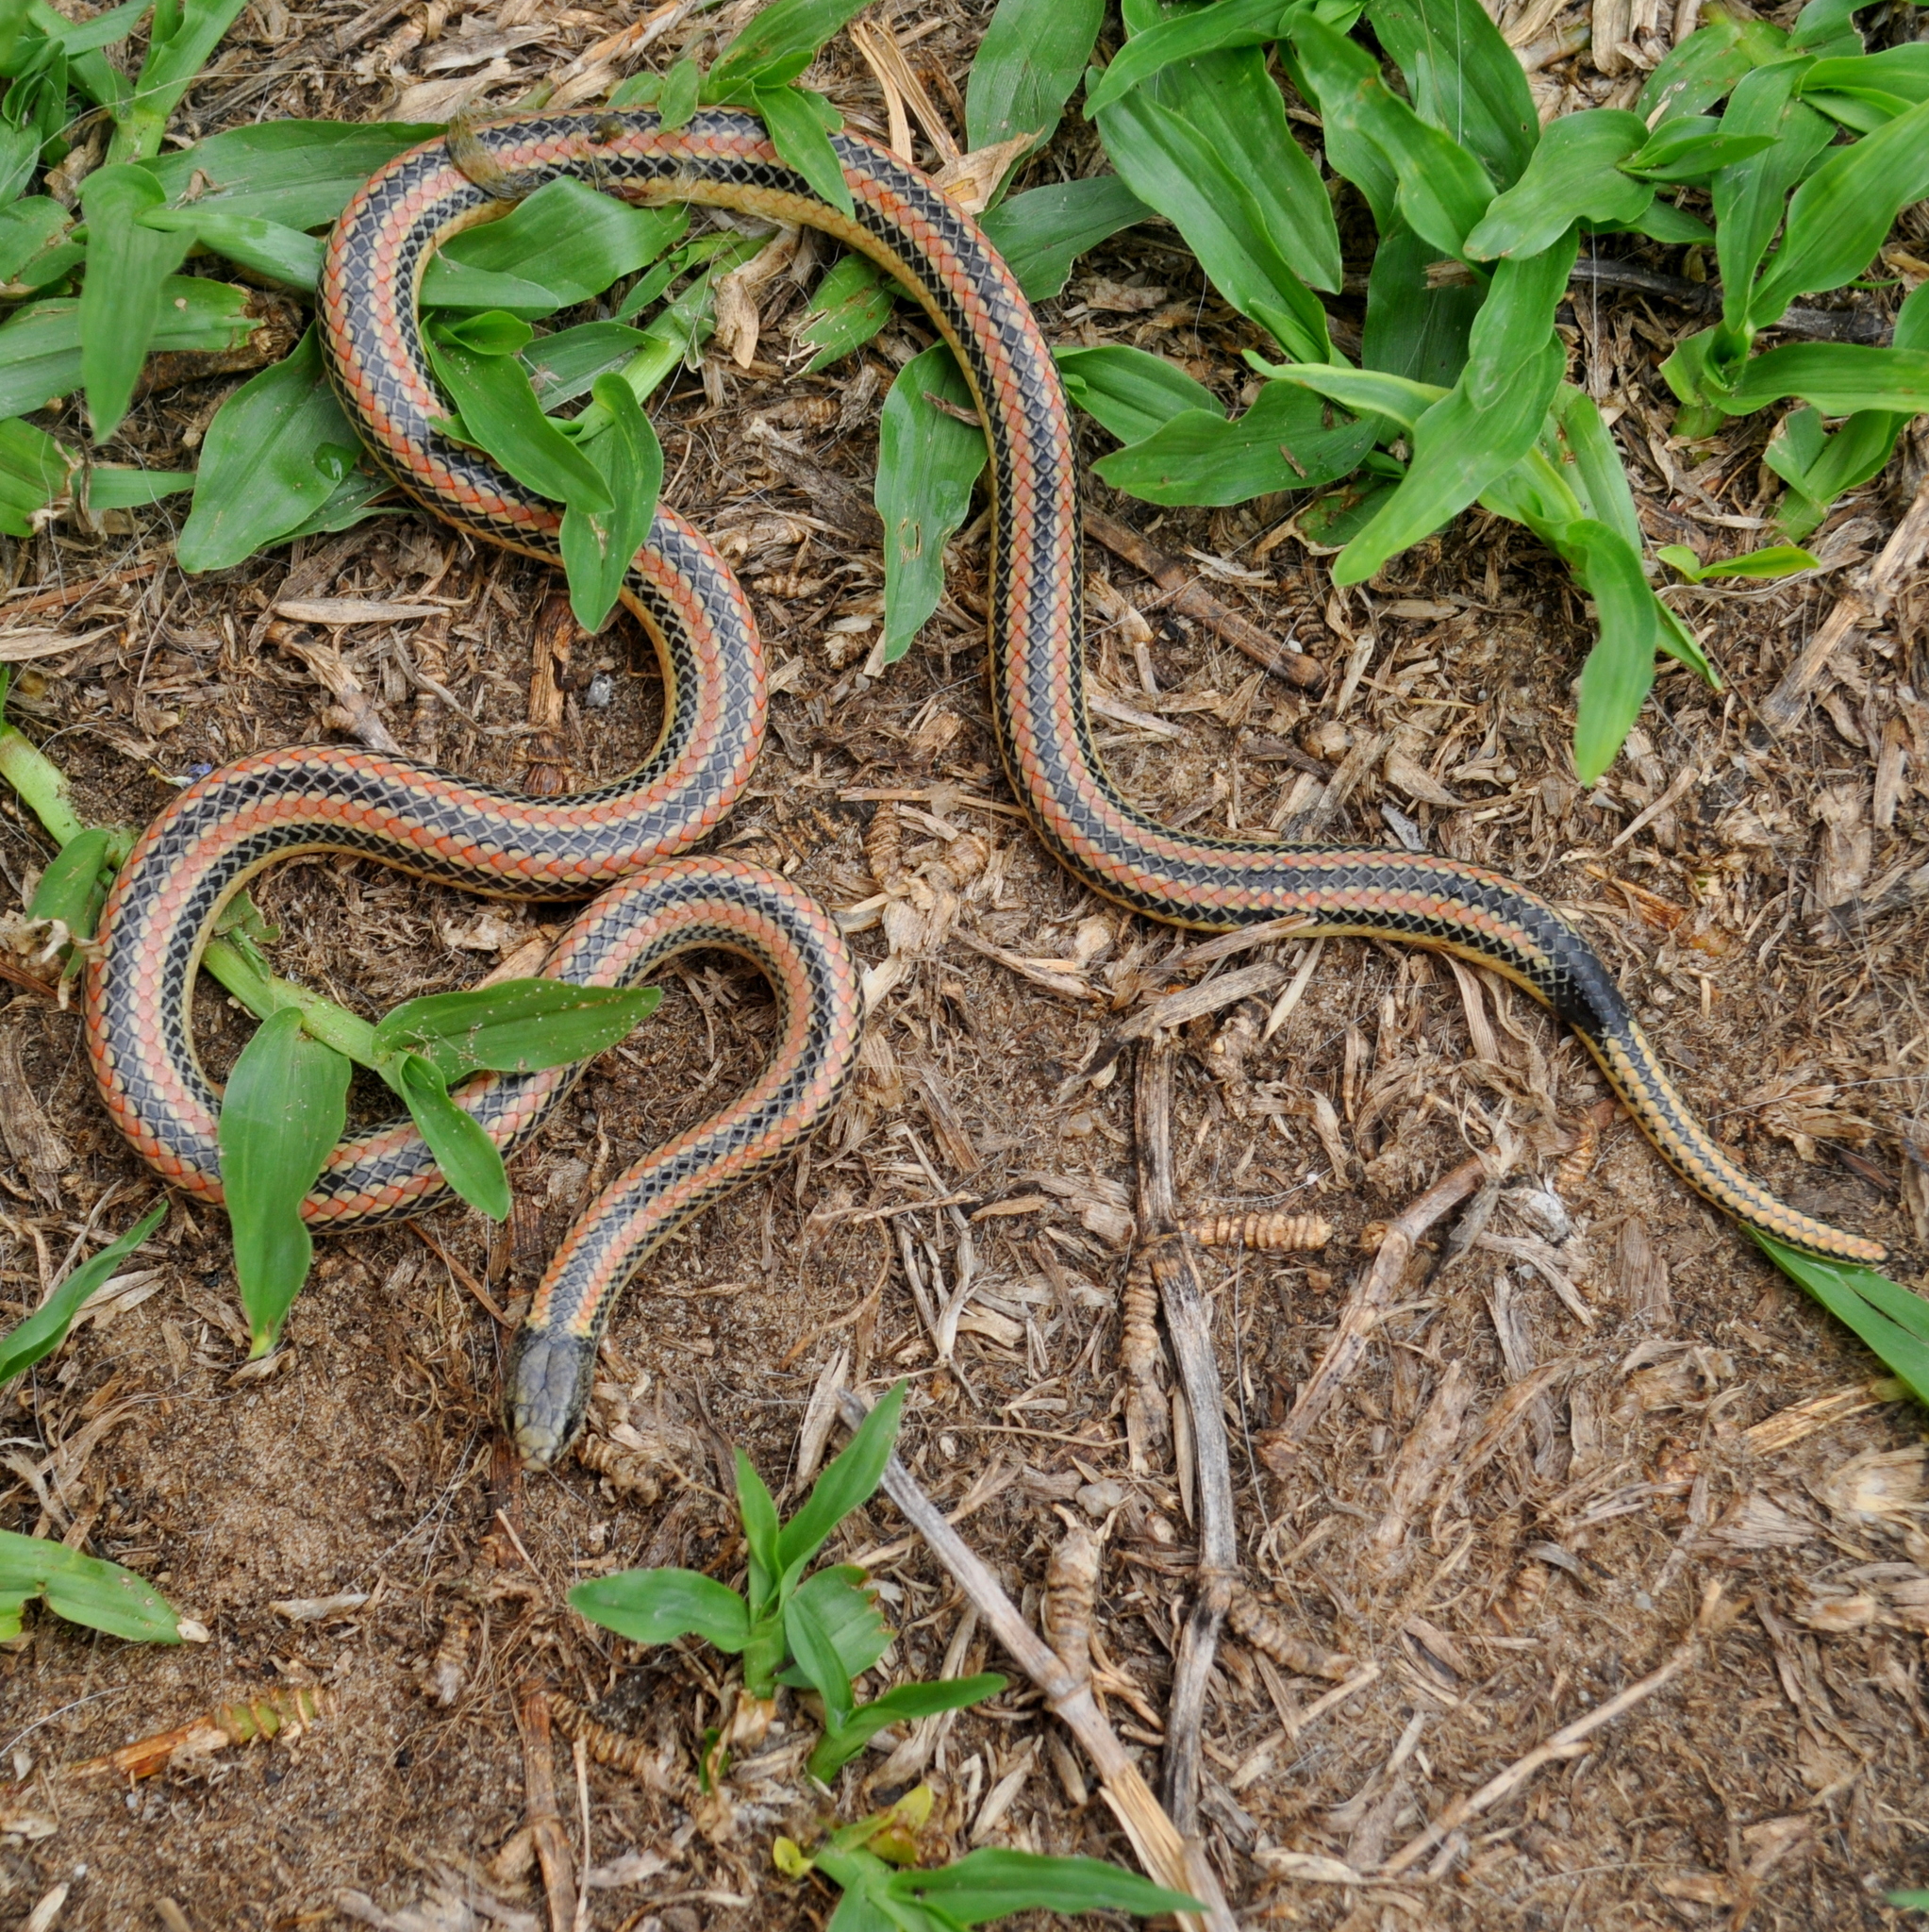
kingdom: Animalia
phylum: Chordata
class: Squamata
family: Colubridae
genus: Phalotris
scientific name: Phalotris lemniscatus
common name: Dumeril's diadem snake
